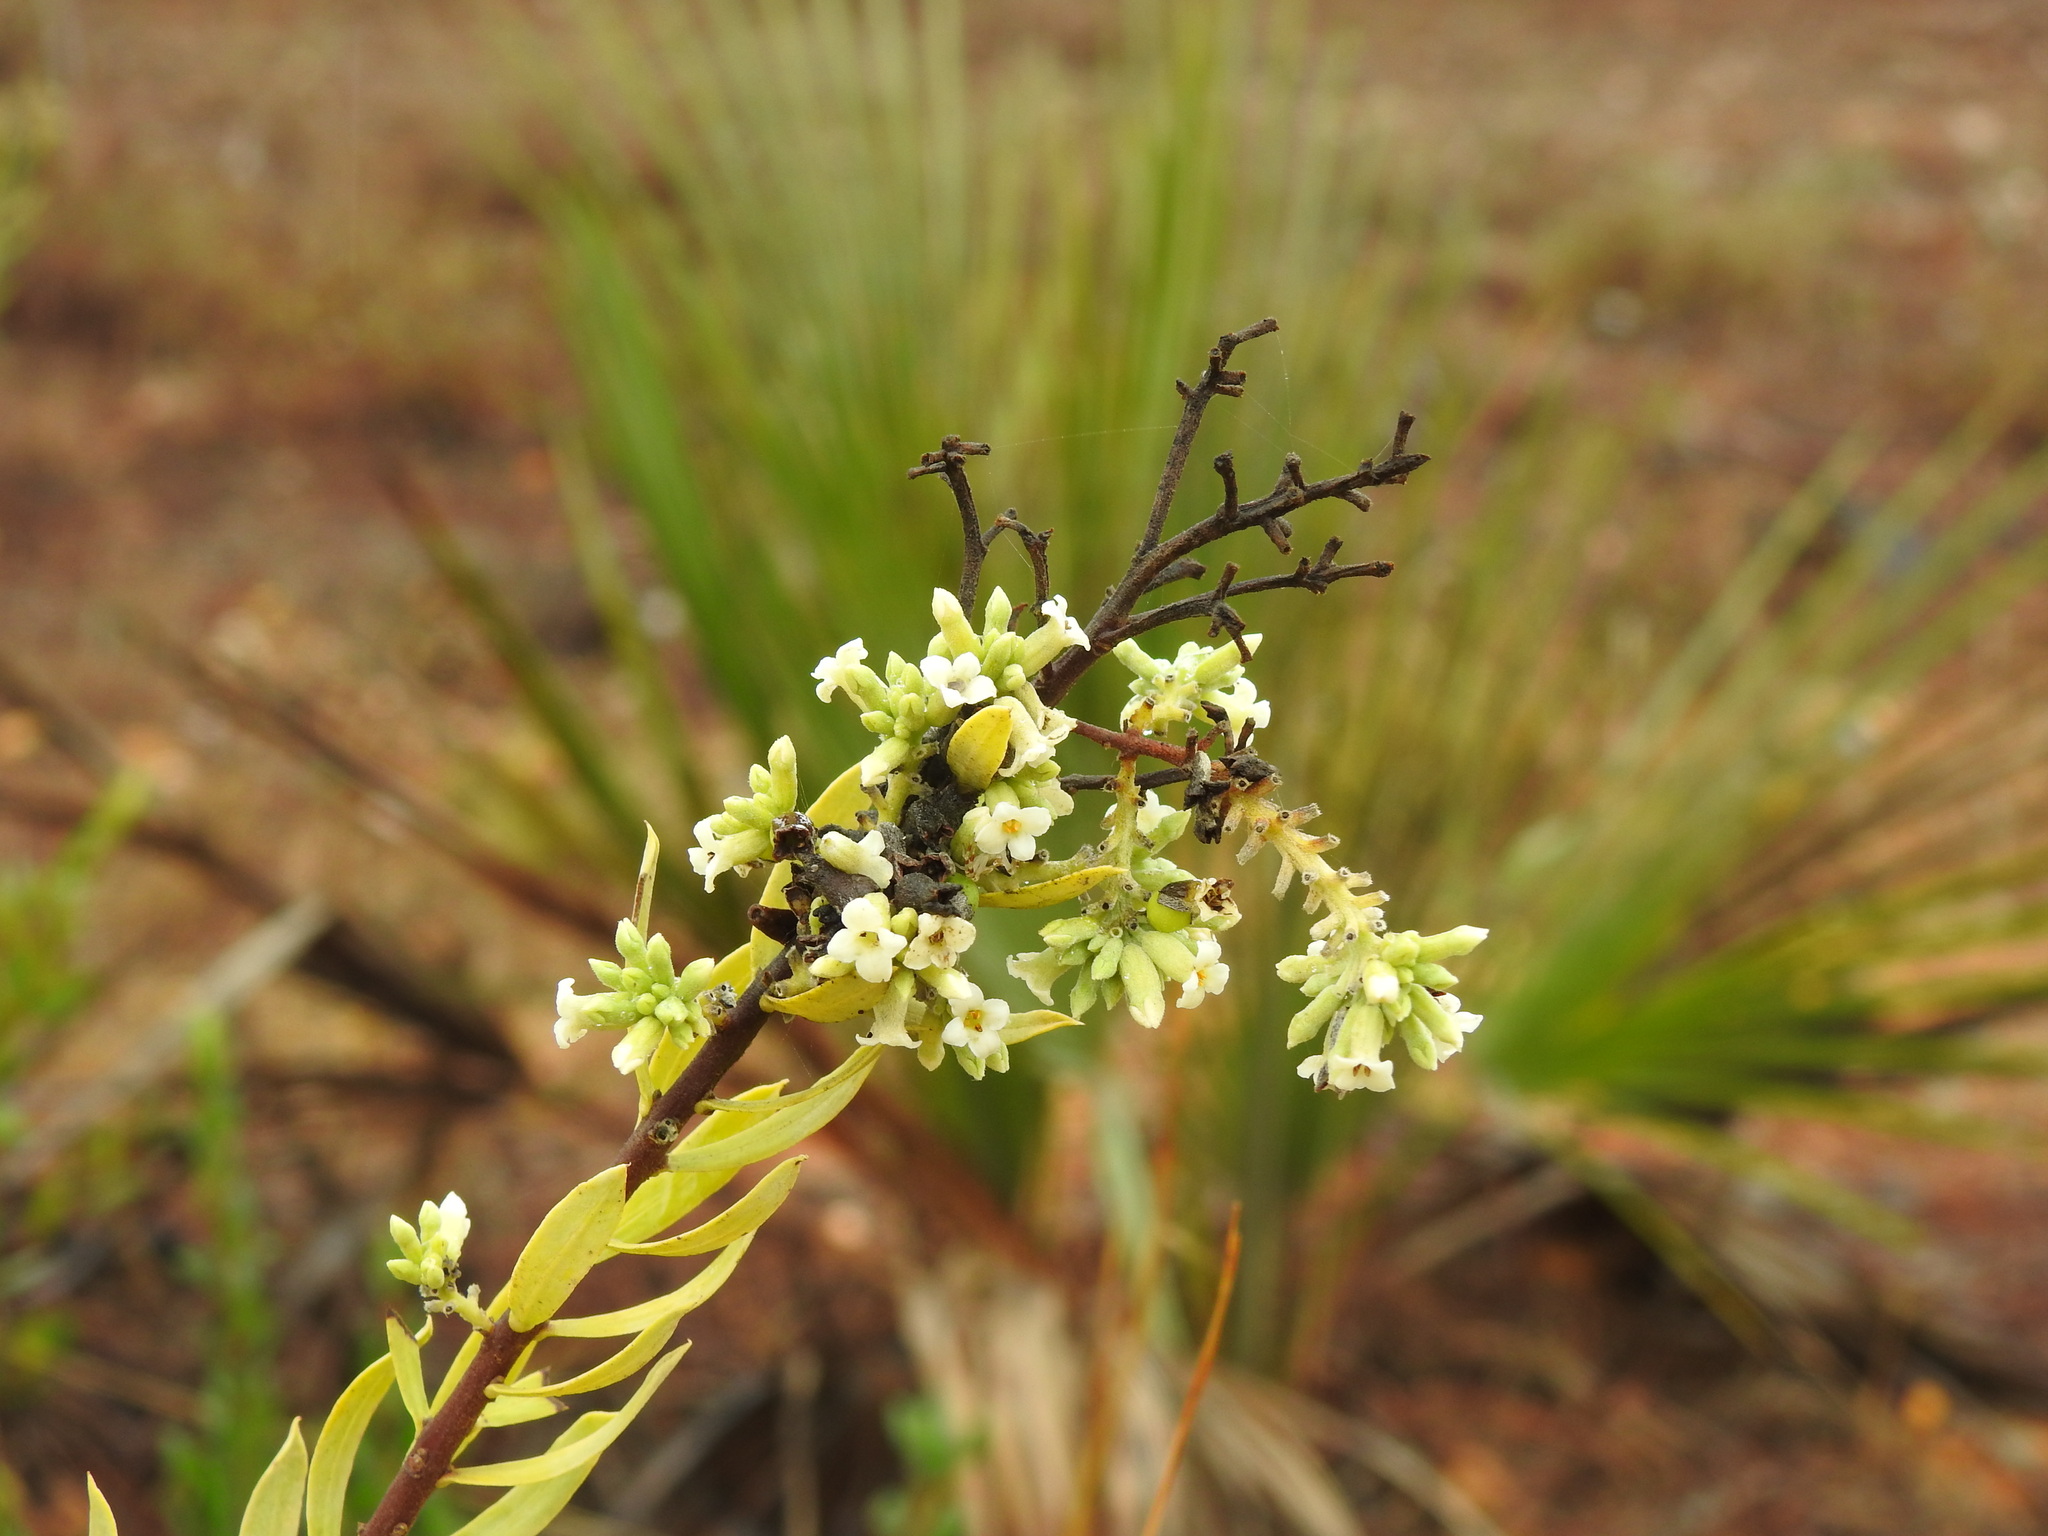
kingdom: Plantae
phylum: Tracheophyta
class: Magnoliopsida
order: Malvales
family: Thymelaeaceae
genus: Daphne
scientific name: Daphne gnidium
